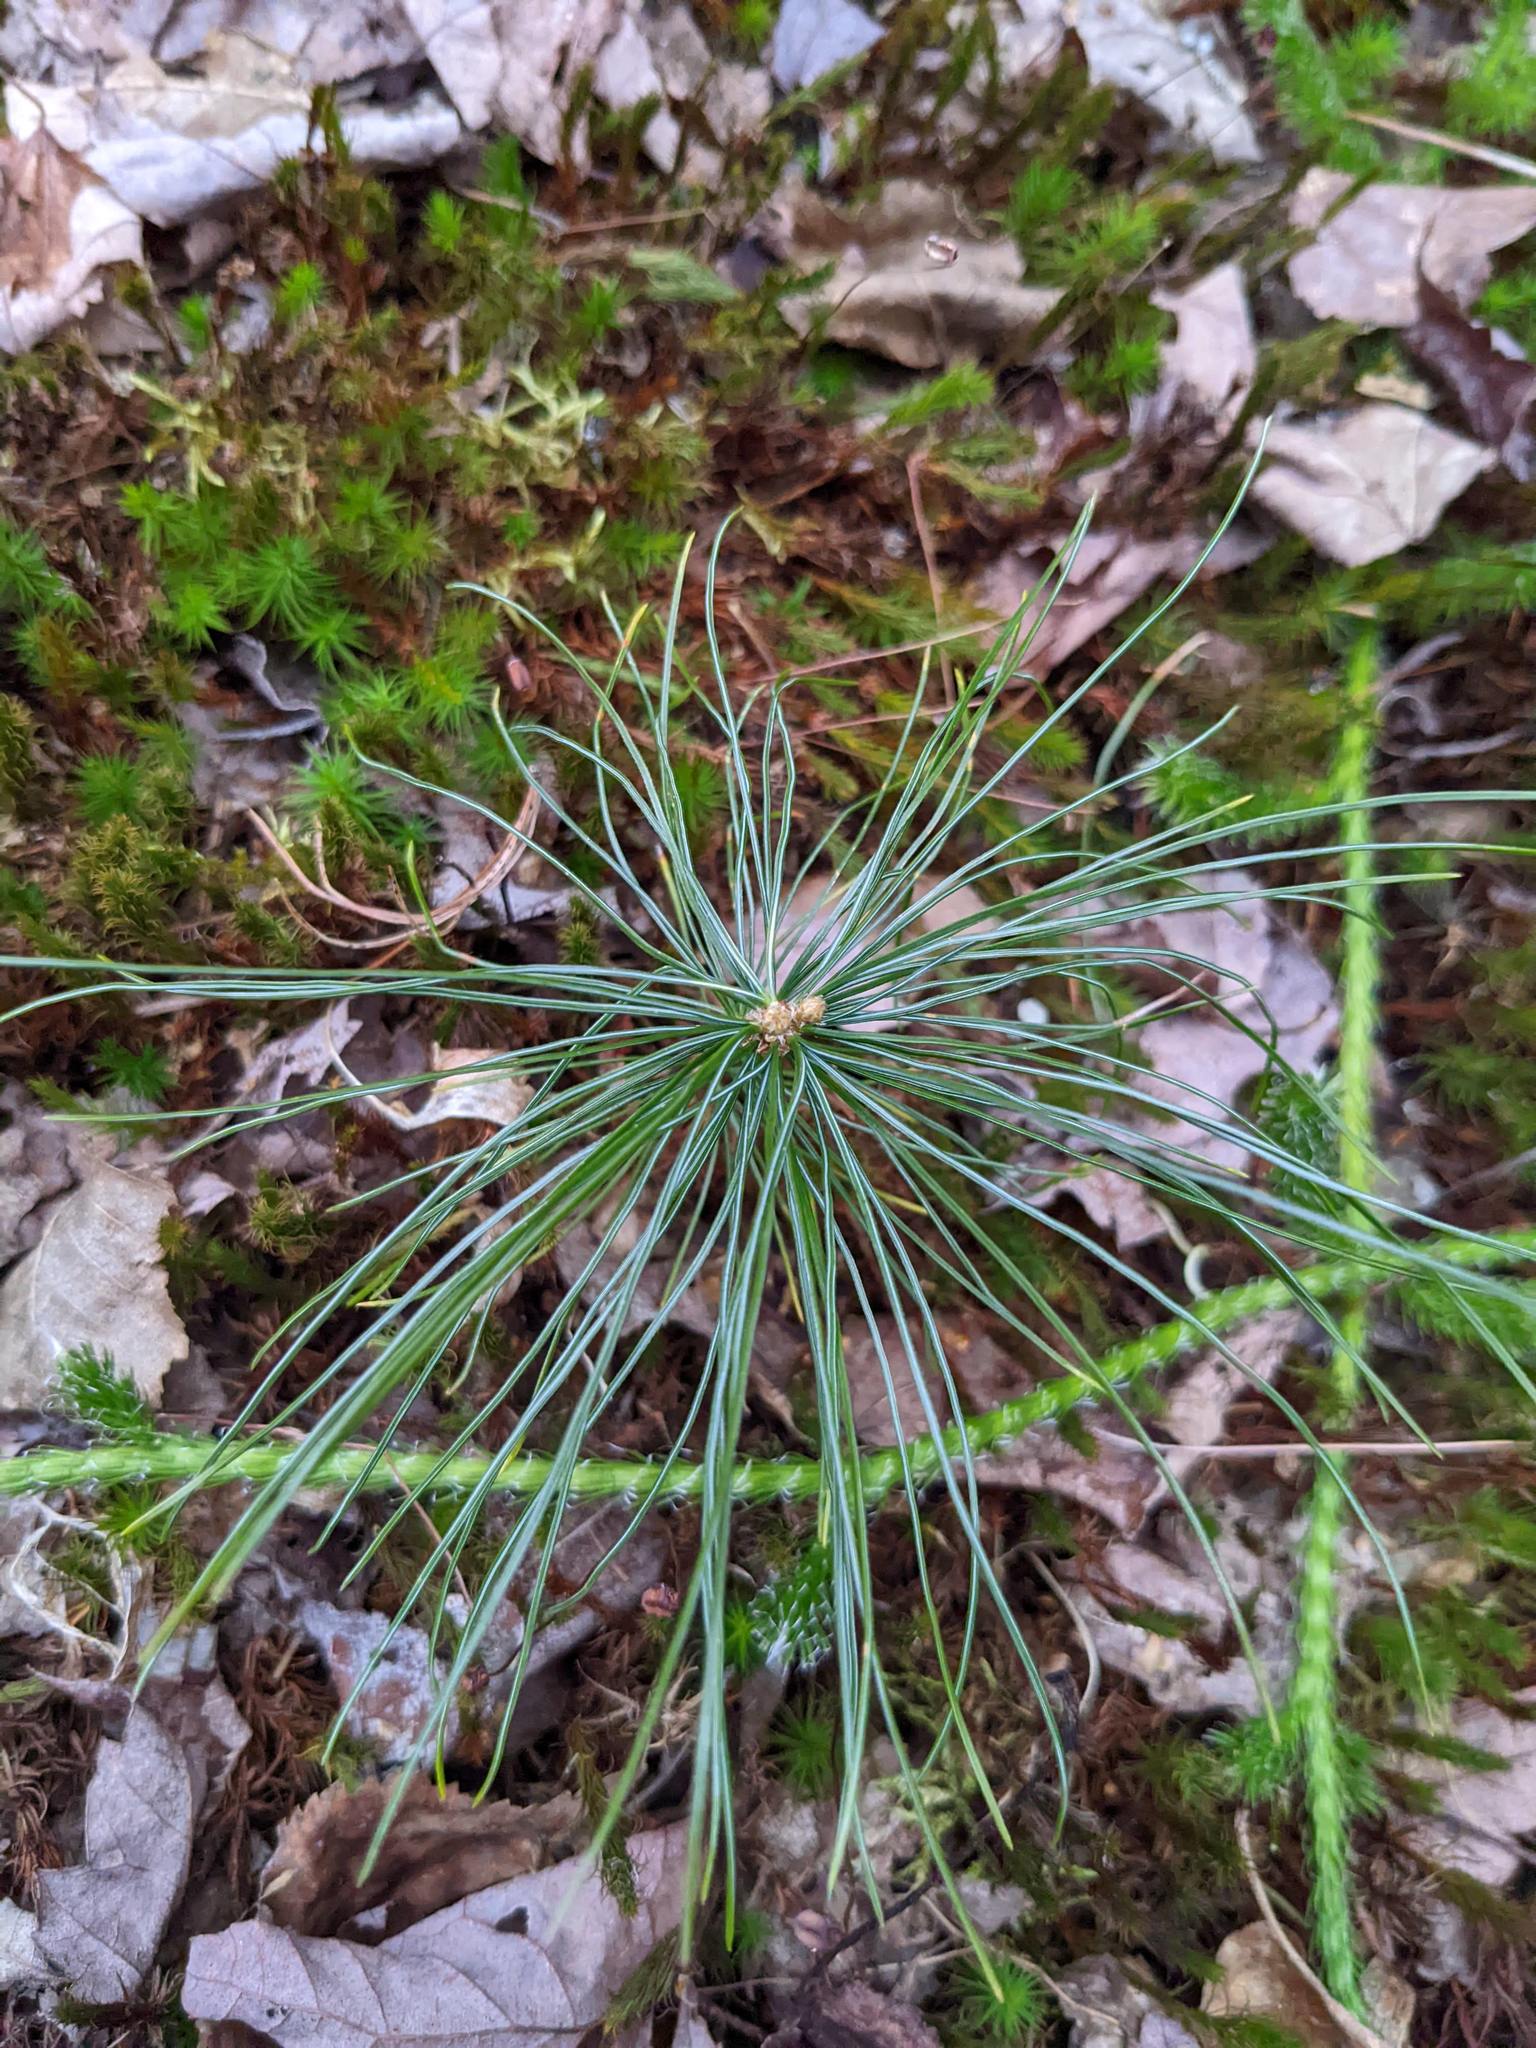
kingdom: Plantae
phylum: Tracheophyta
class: Pinopsida
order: Pinales
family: Pinaceae
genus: Pinus
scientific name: Pinus strobus
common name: Weymouth pine
